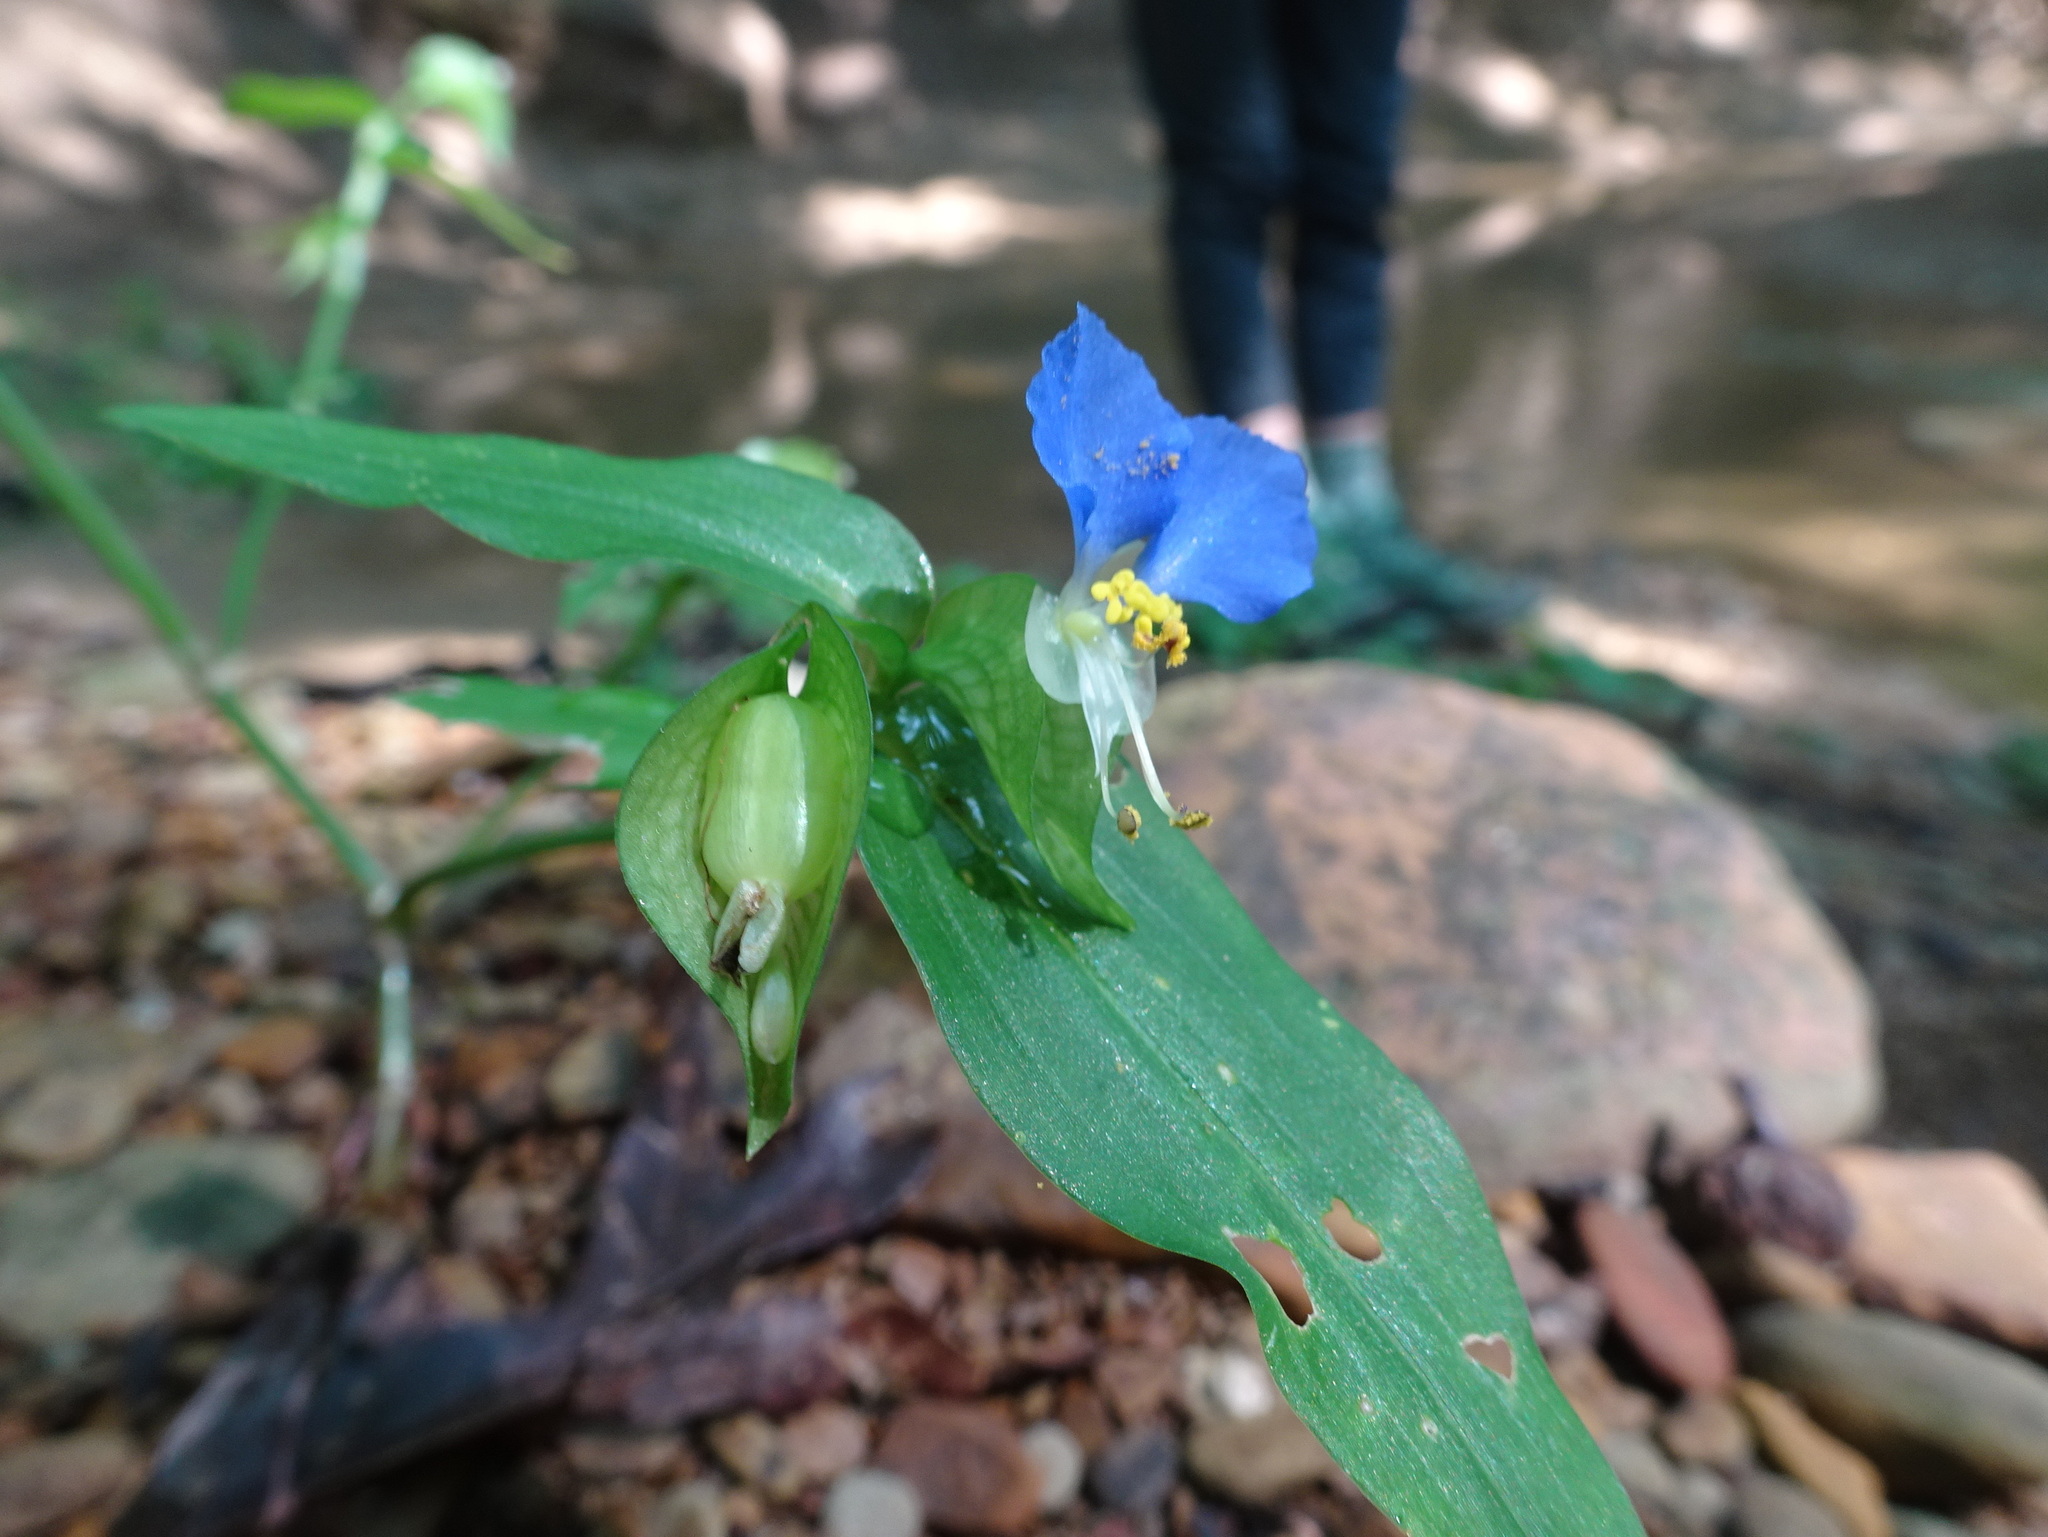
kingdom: Plantae
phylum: Tracheophyta
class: Liliopsida
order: Commelinales
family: Commelinaceae
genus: Commelina
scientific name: Commelina communis
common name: Asiatic dayflower
